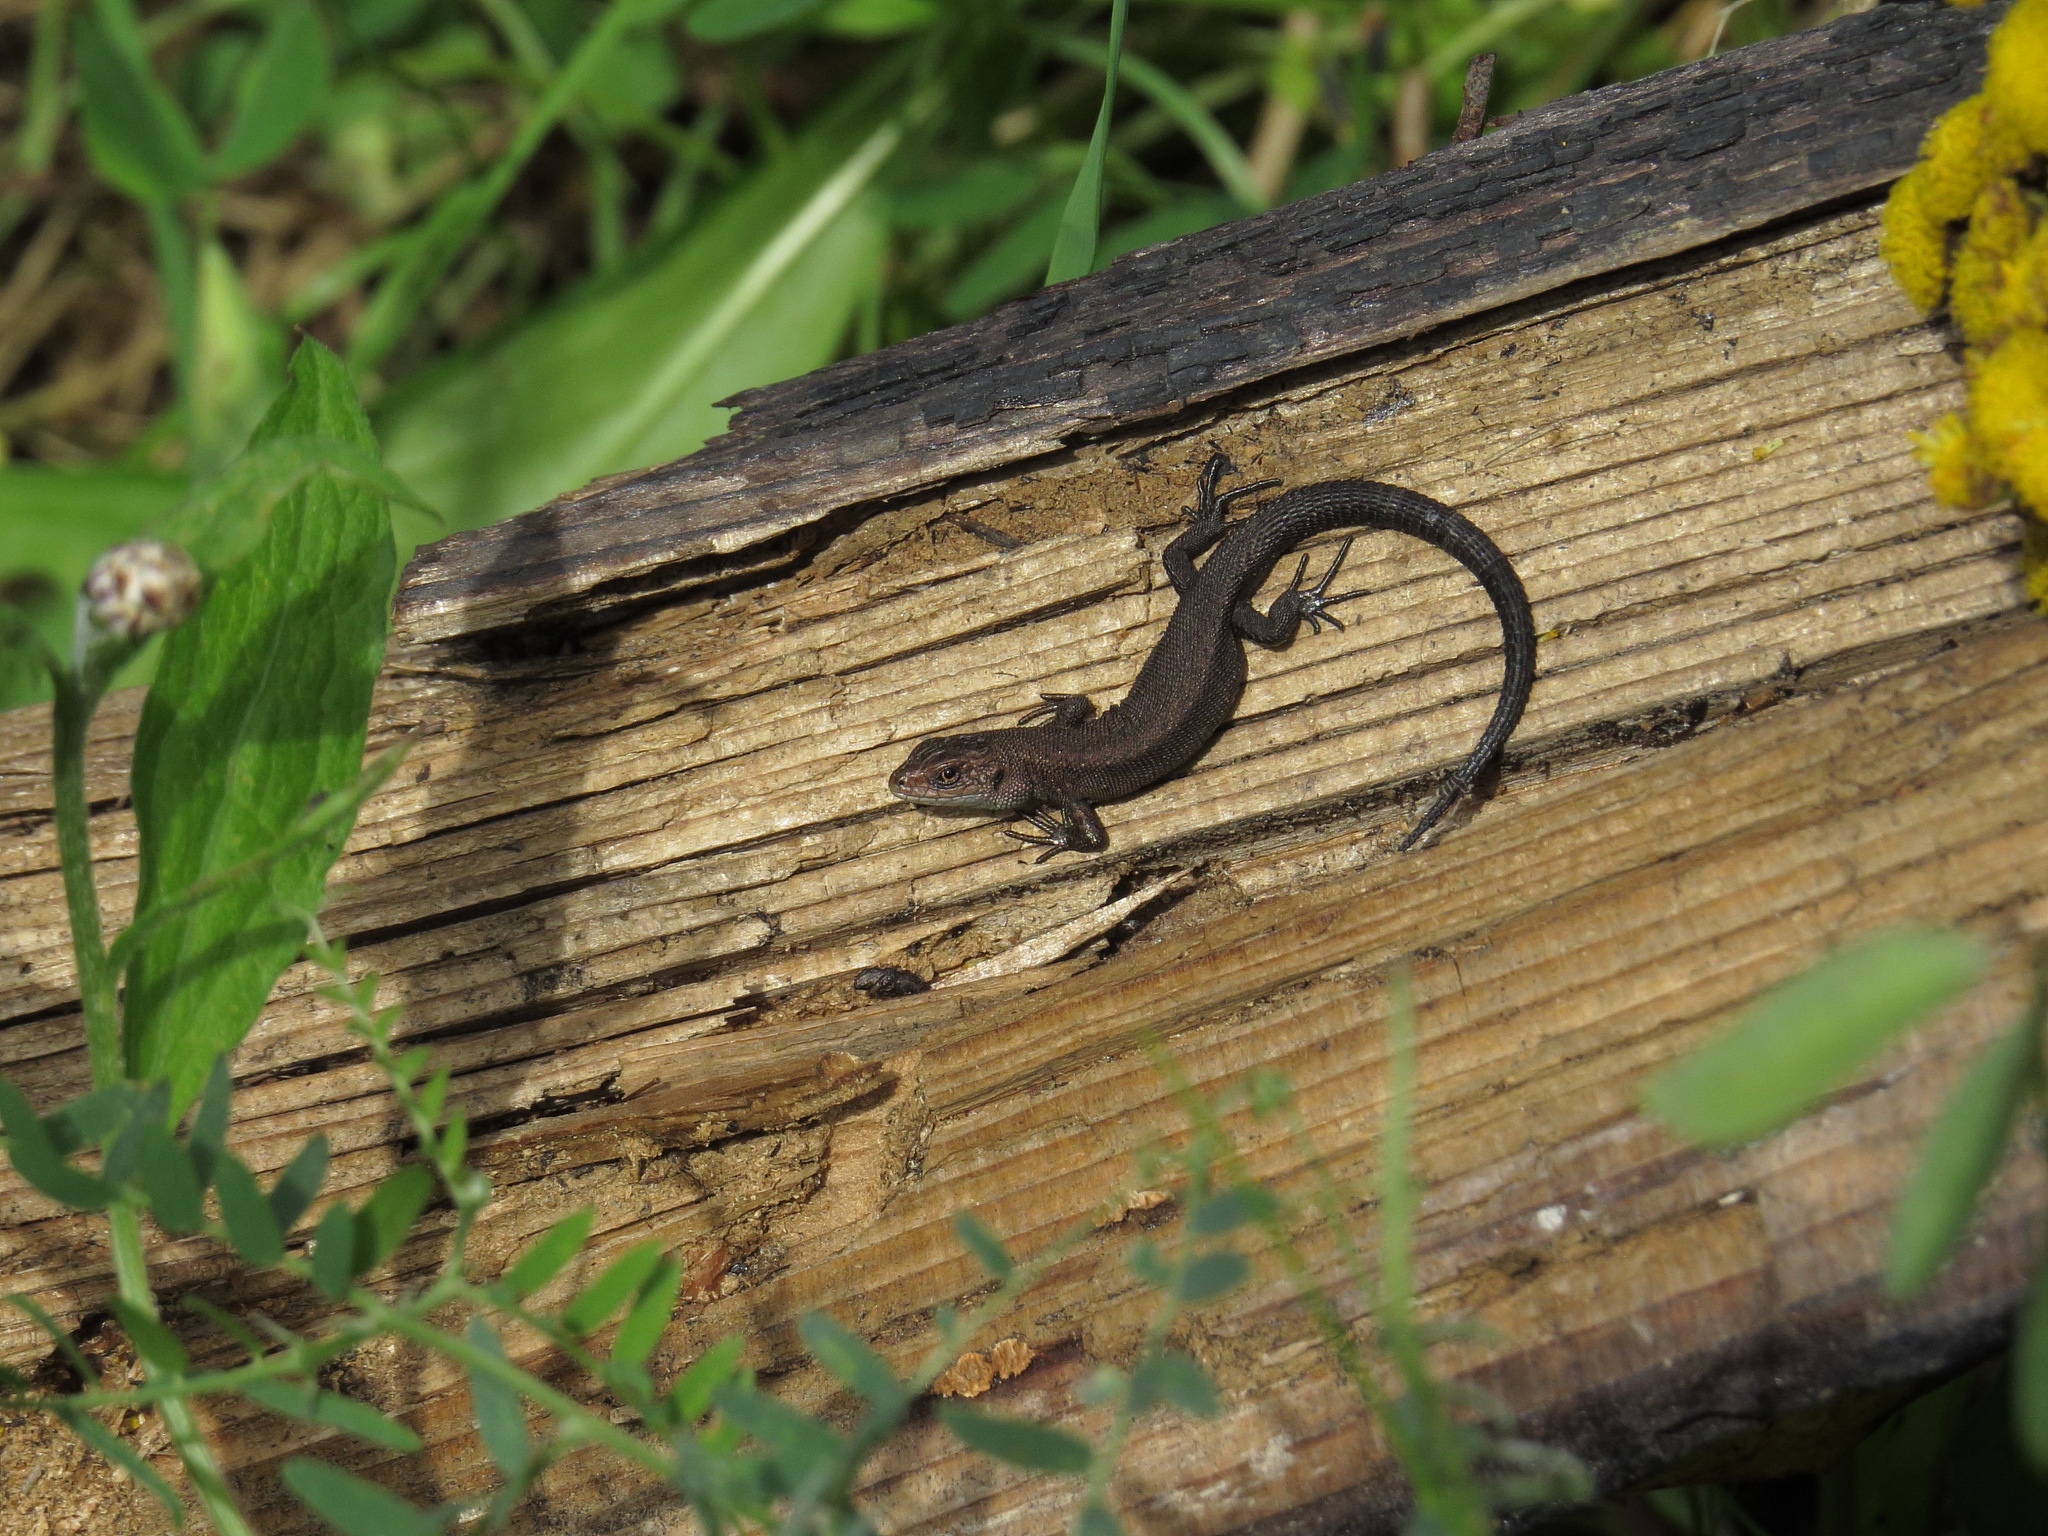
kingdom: Animalia
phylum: Chordata
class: Squamata
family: Lacertidae
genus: Zootoca
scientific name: Zootoca vivipara
